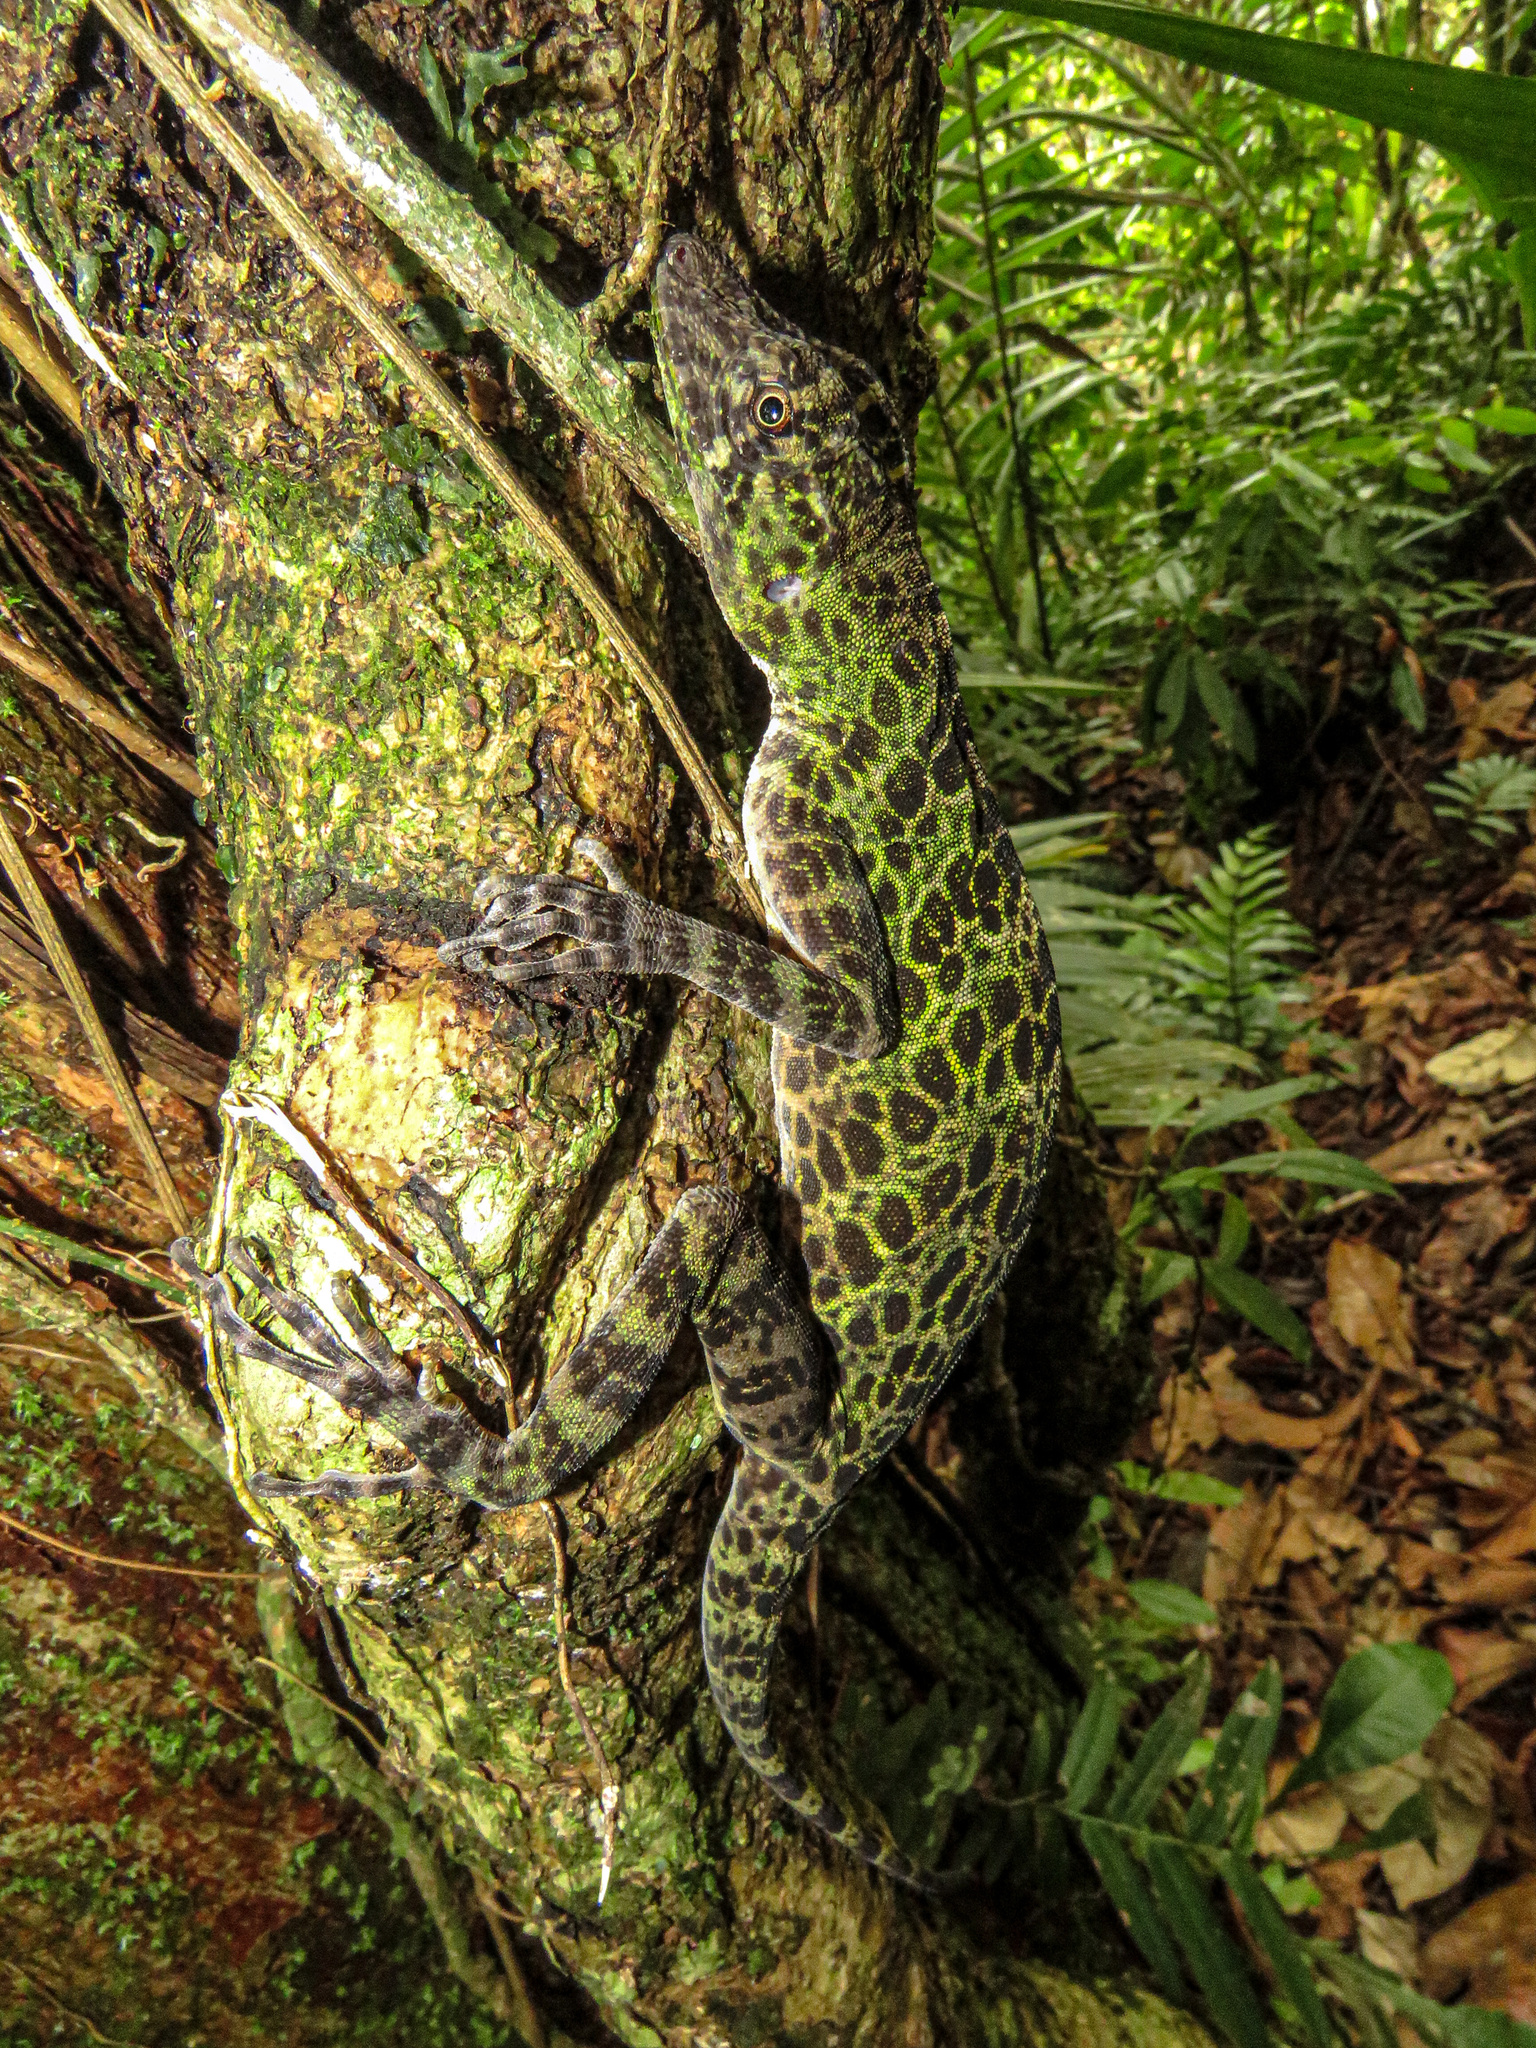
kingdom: Animalia
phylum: Chordata
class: Squamata
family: Dactyloidae
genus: Anolis
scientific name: Anolis frenatus
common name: Bridled anole
